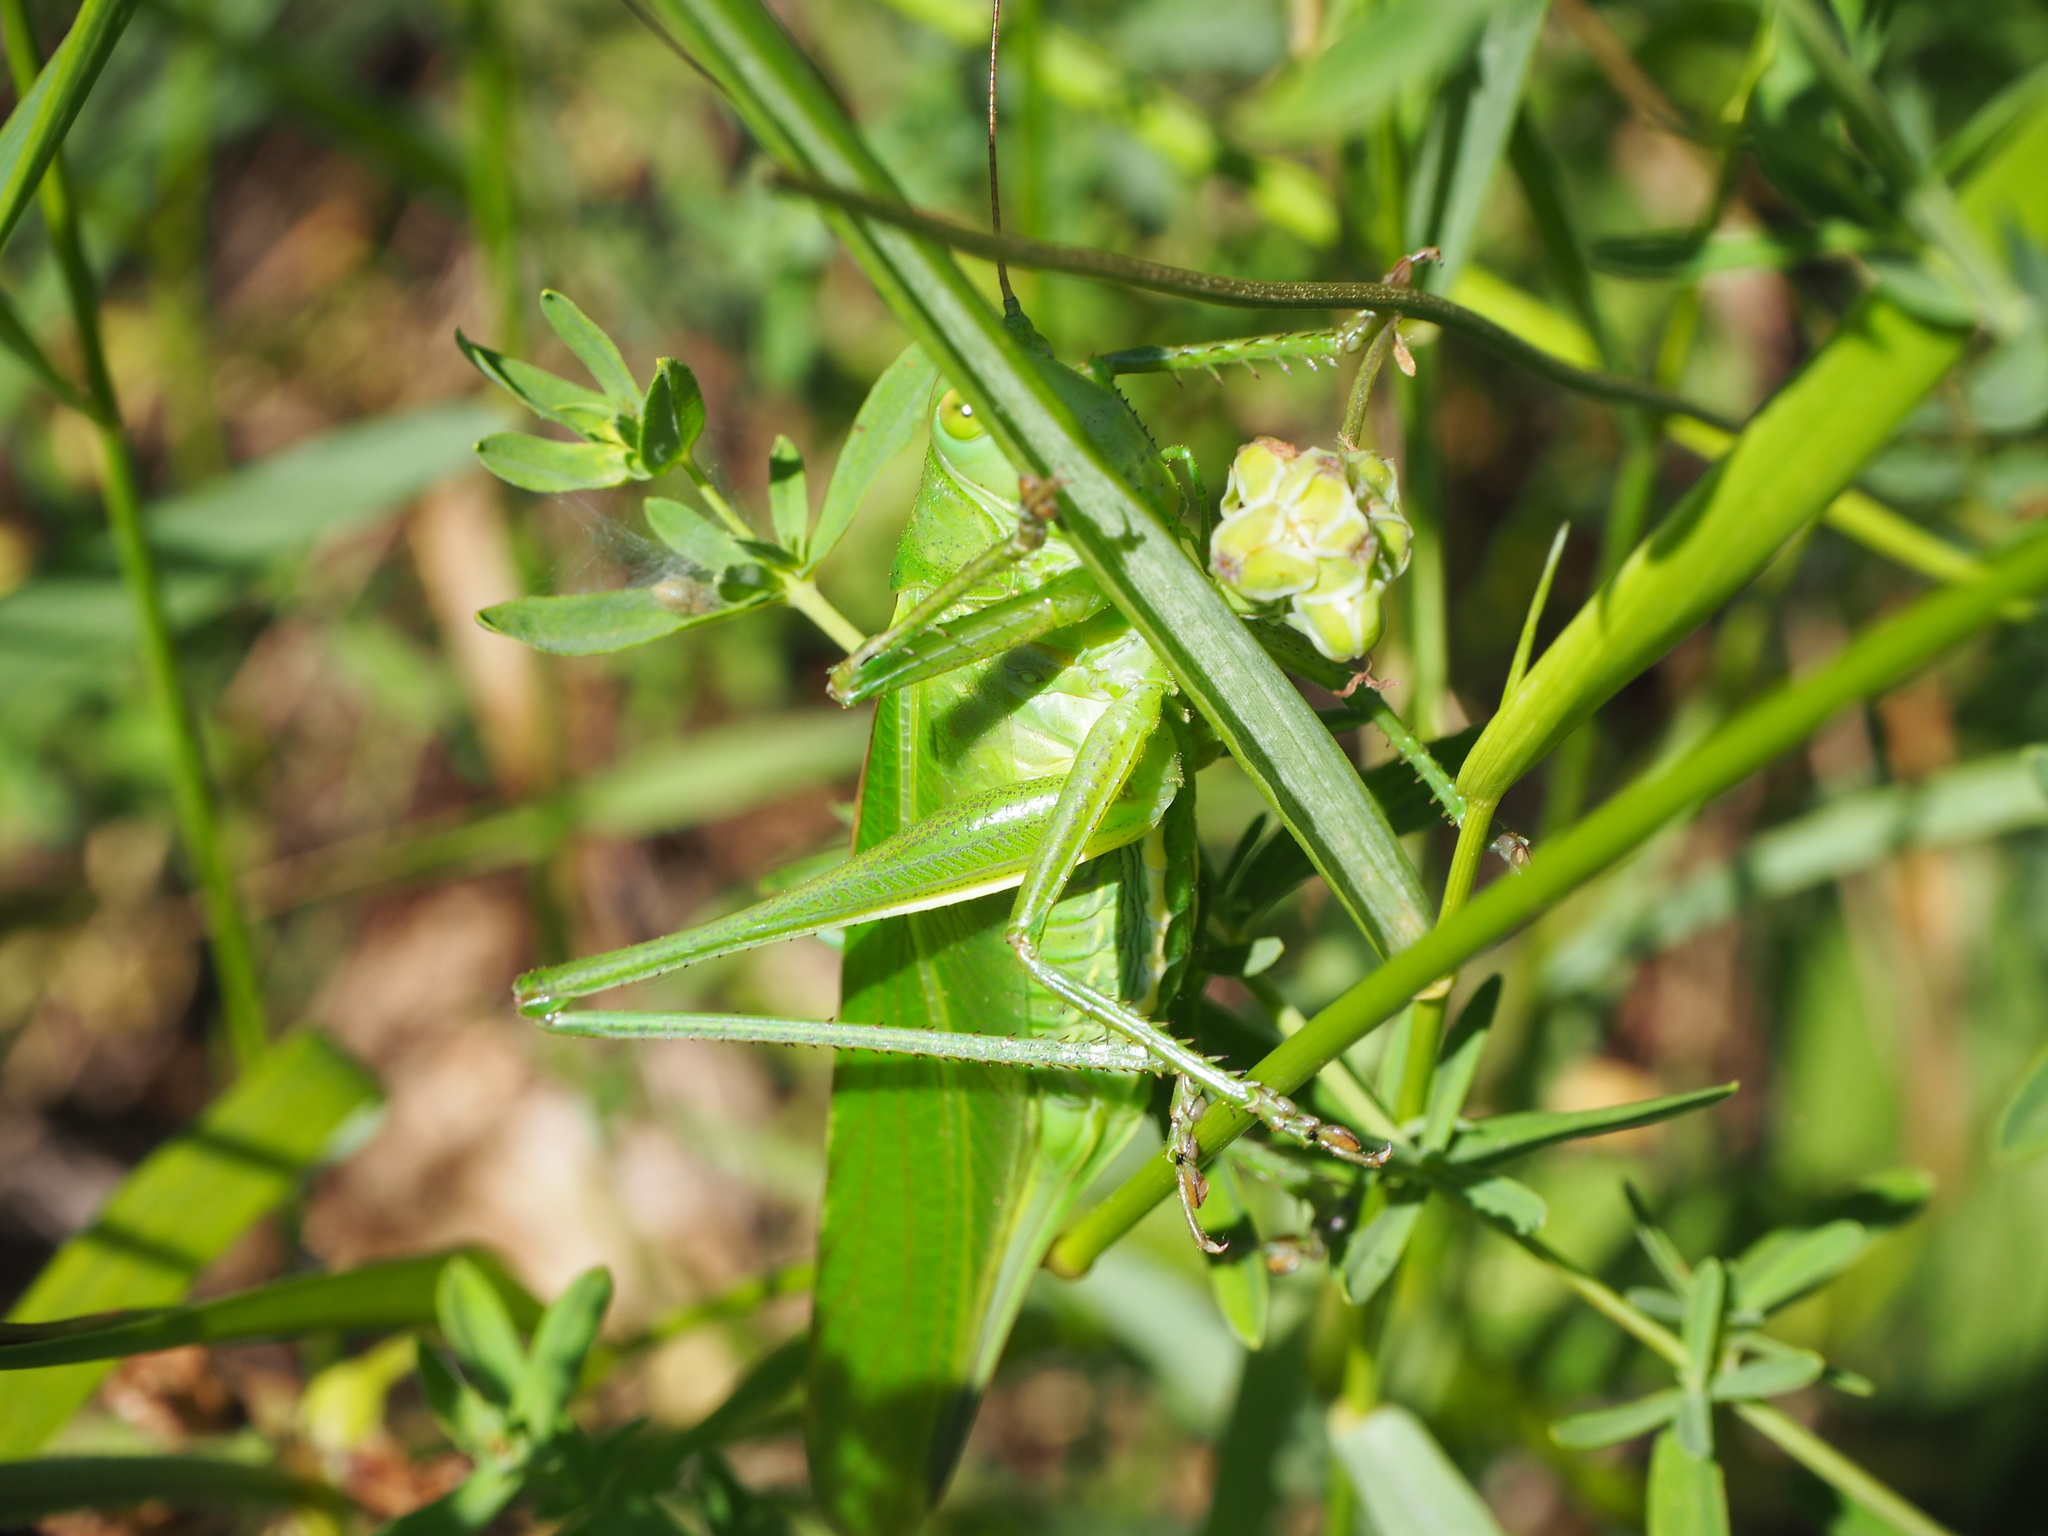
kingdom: Animalia
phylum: Arthropoda
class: Insecta
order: Orthoptera
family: Tettigoniidae
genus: Tettigonia
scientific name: Tettigonia viridissima
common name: Great green bush-cricket
